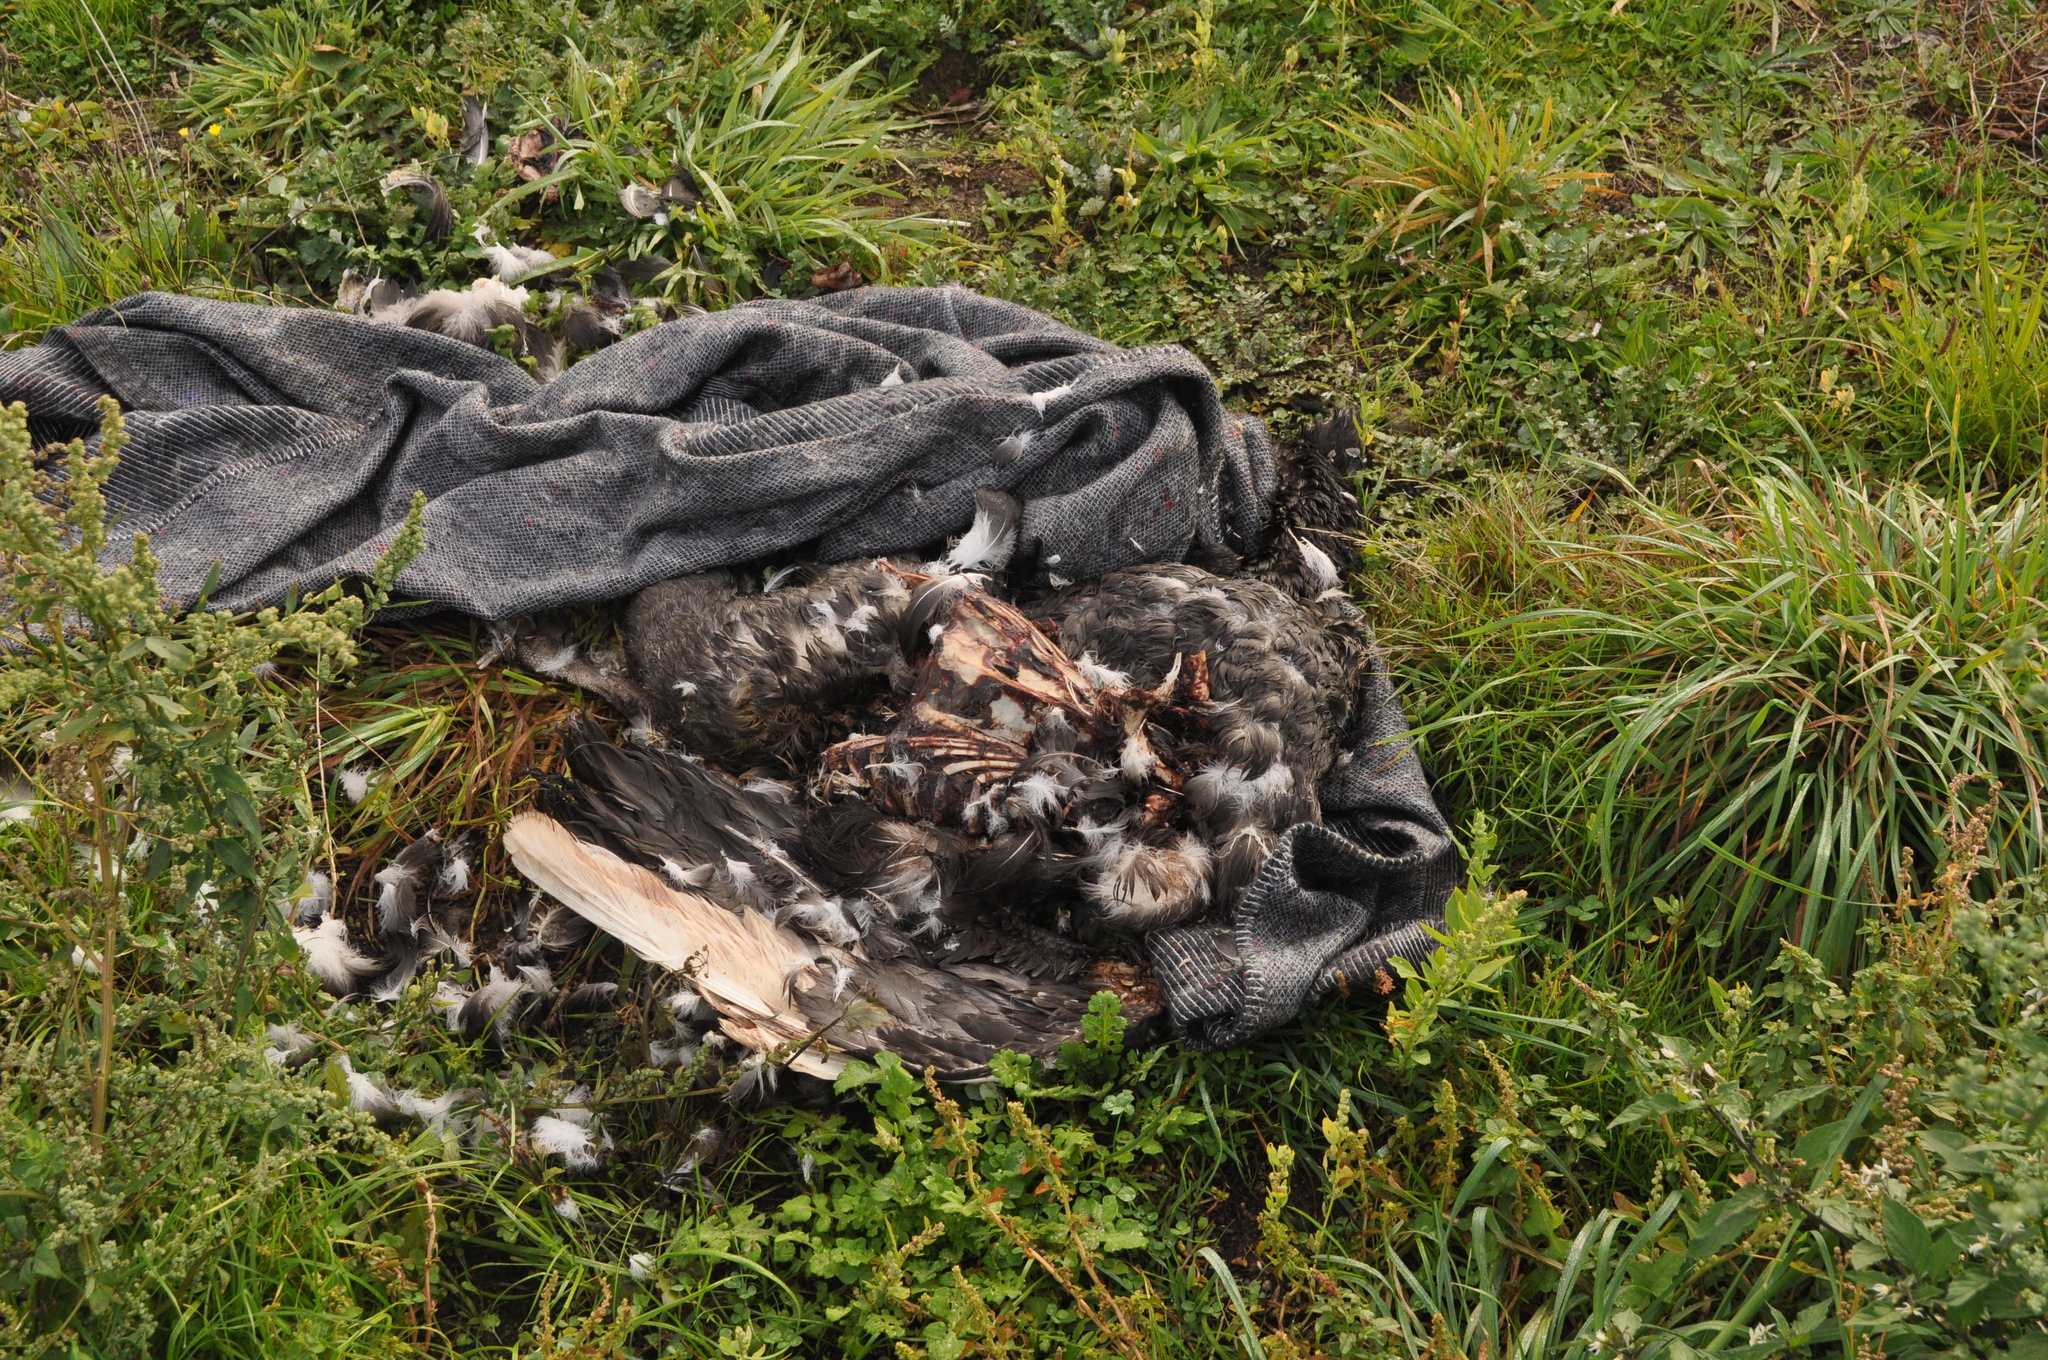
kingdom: Animalia
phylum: Chordata
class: Aves
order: Anseriformes
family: Anatidae
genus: Cygnus
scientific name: Cygnus atratus
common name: Black swan
